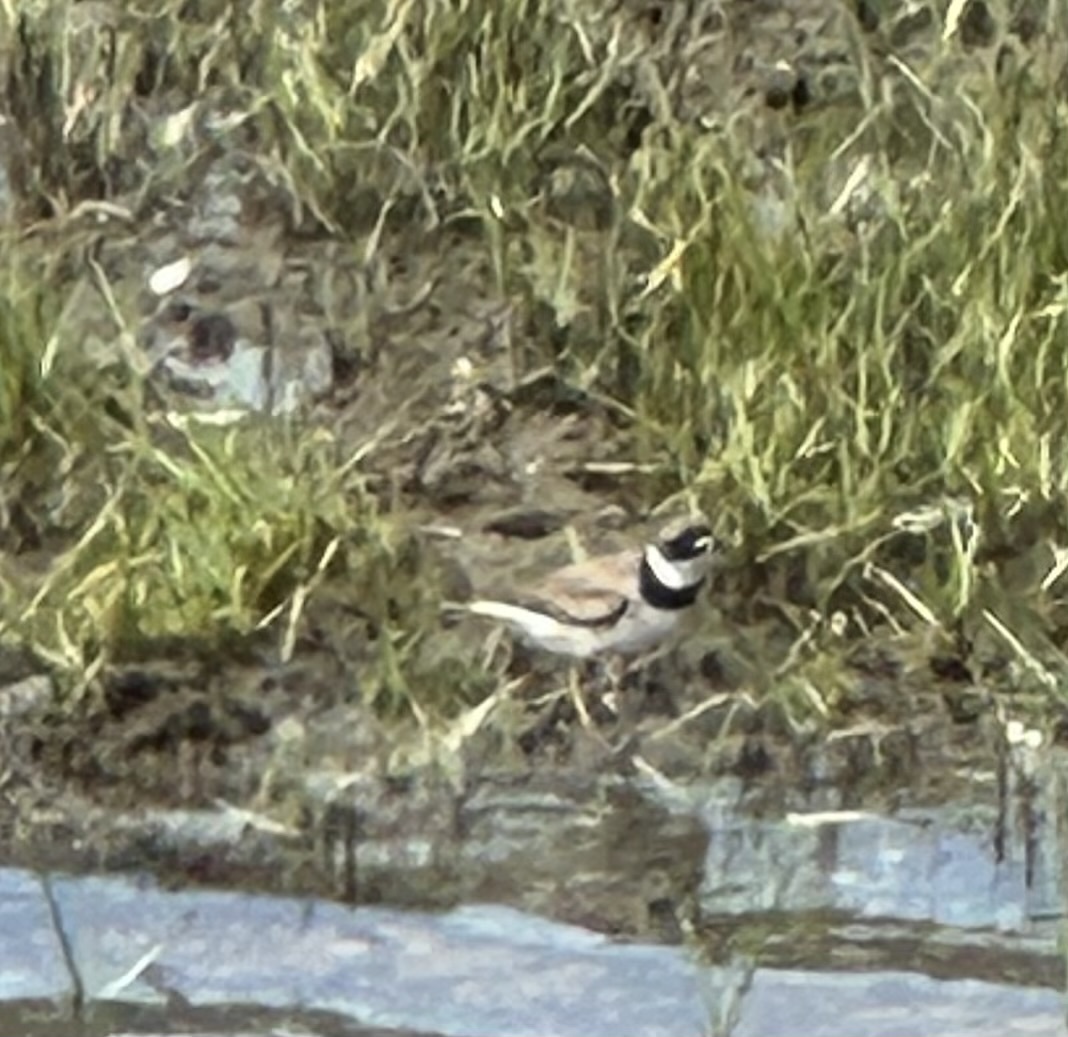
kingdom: Animalia
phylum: Chordata
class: Aves
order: Charadriiformes
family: Charadriidae
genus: Charadrius
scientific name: Charadrius semipalmatus
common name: Semipalmated plover
